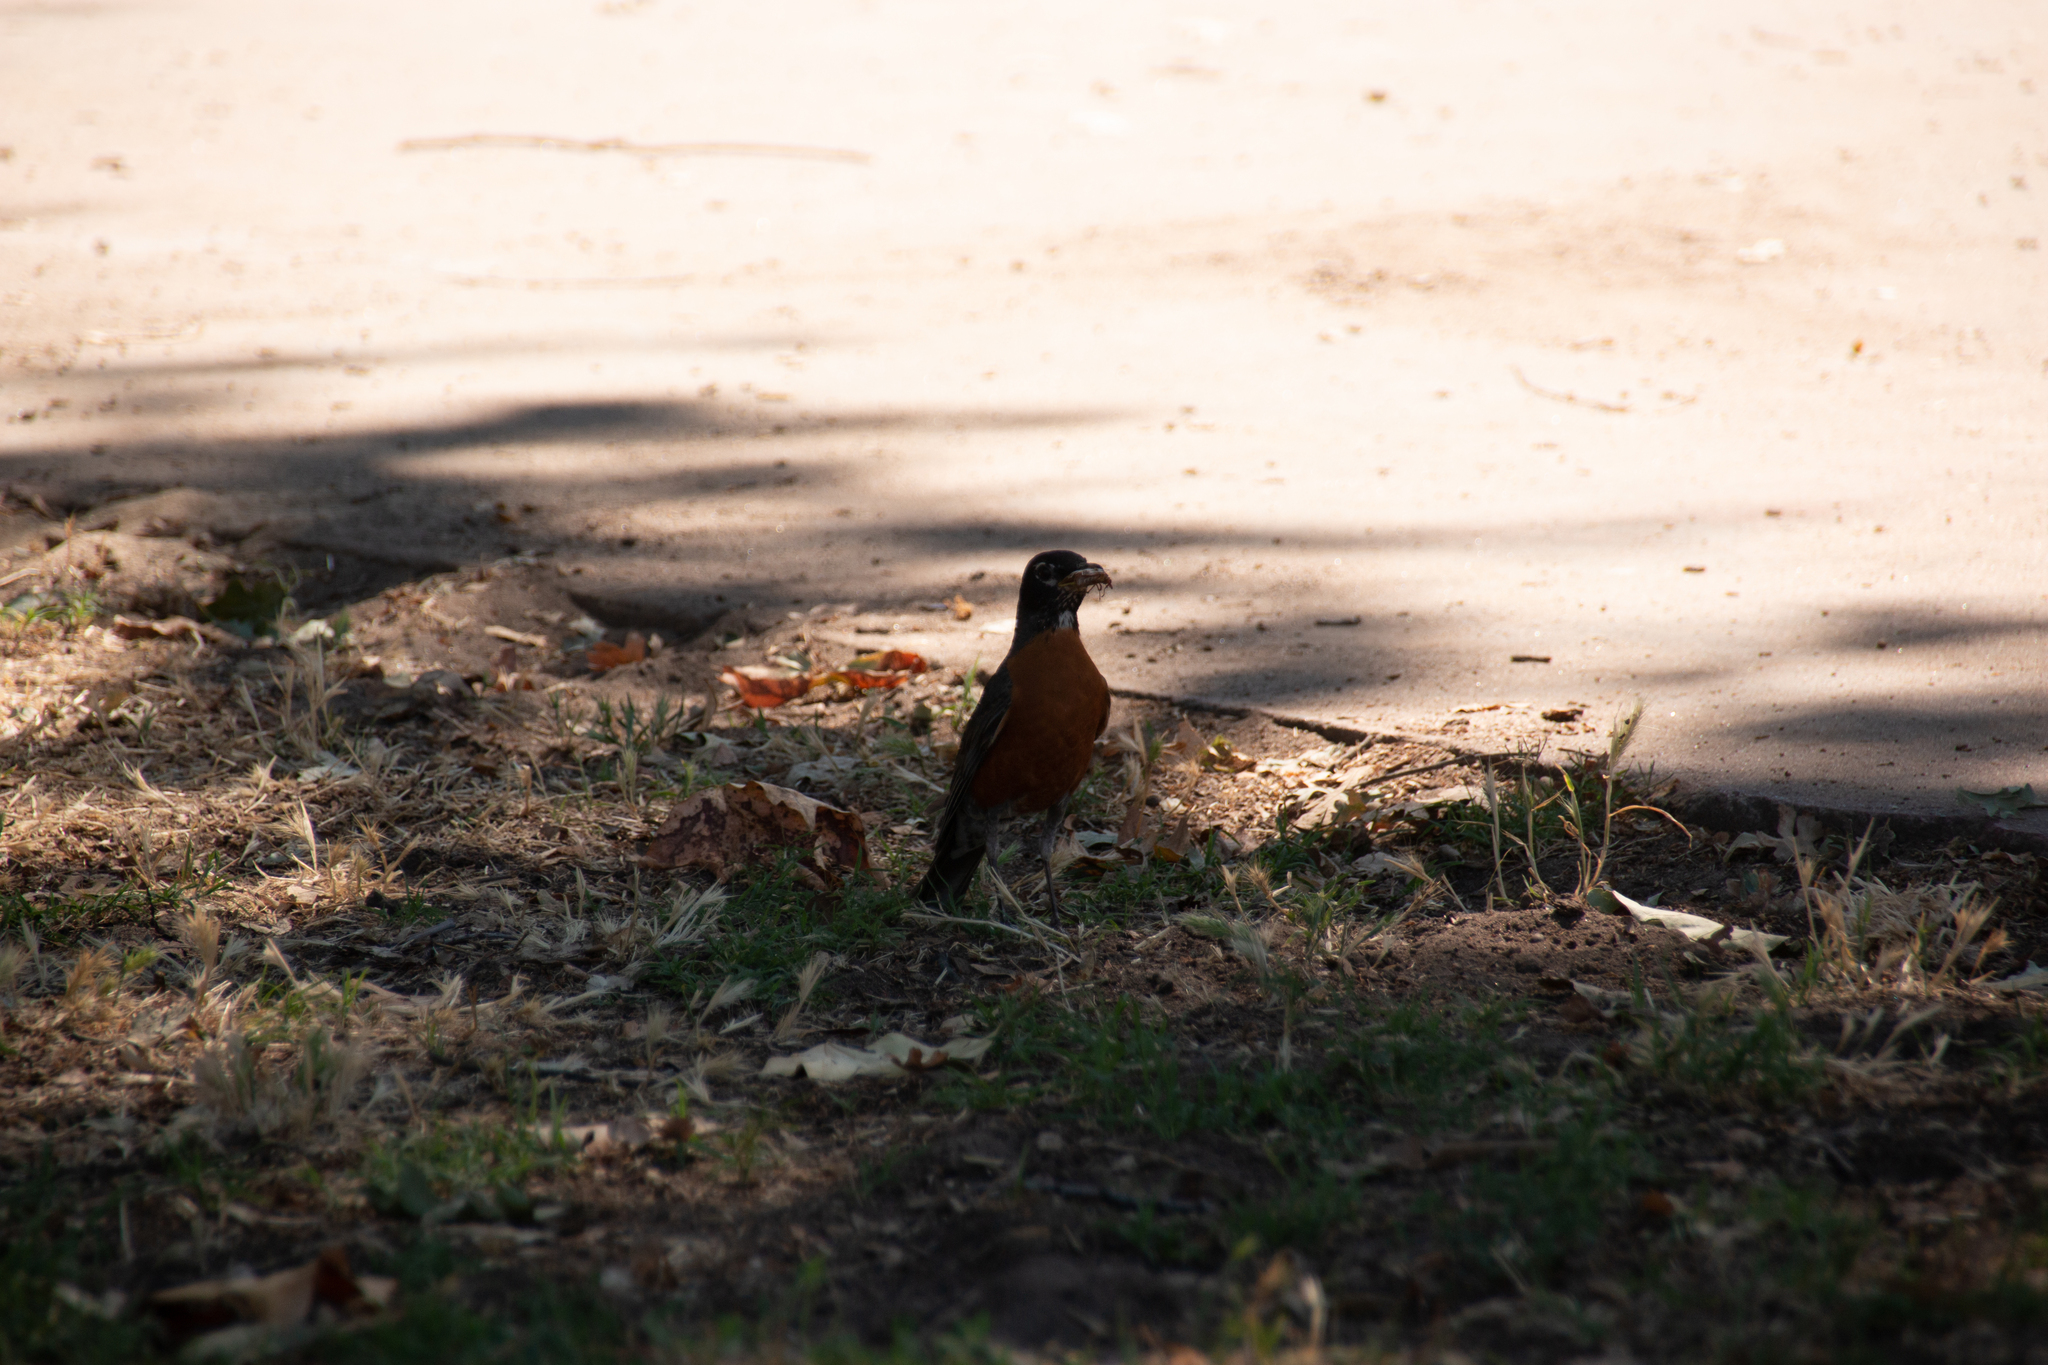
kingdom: Animalia
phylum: Chordata
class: Aves
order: Passeriformes
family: Turdidae
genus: Turdus
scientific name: Turdus migratorius
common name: American robin
